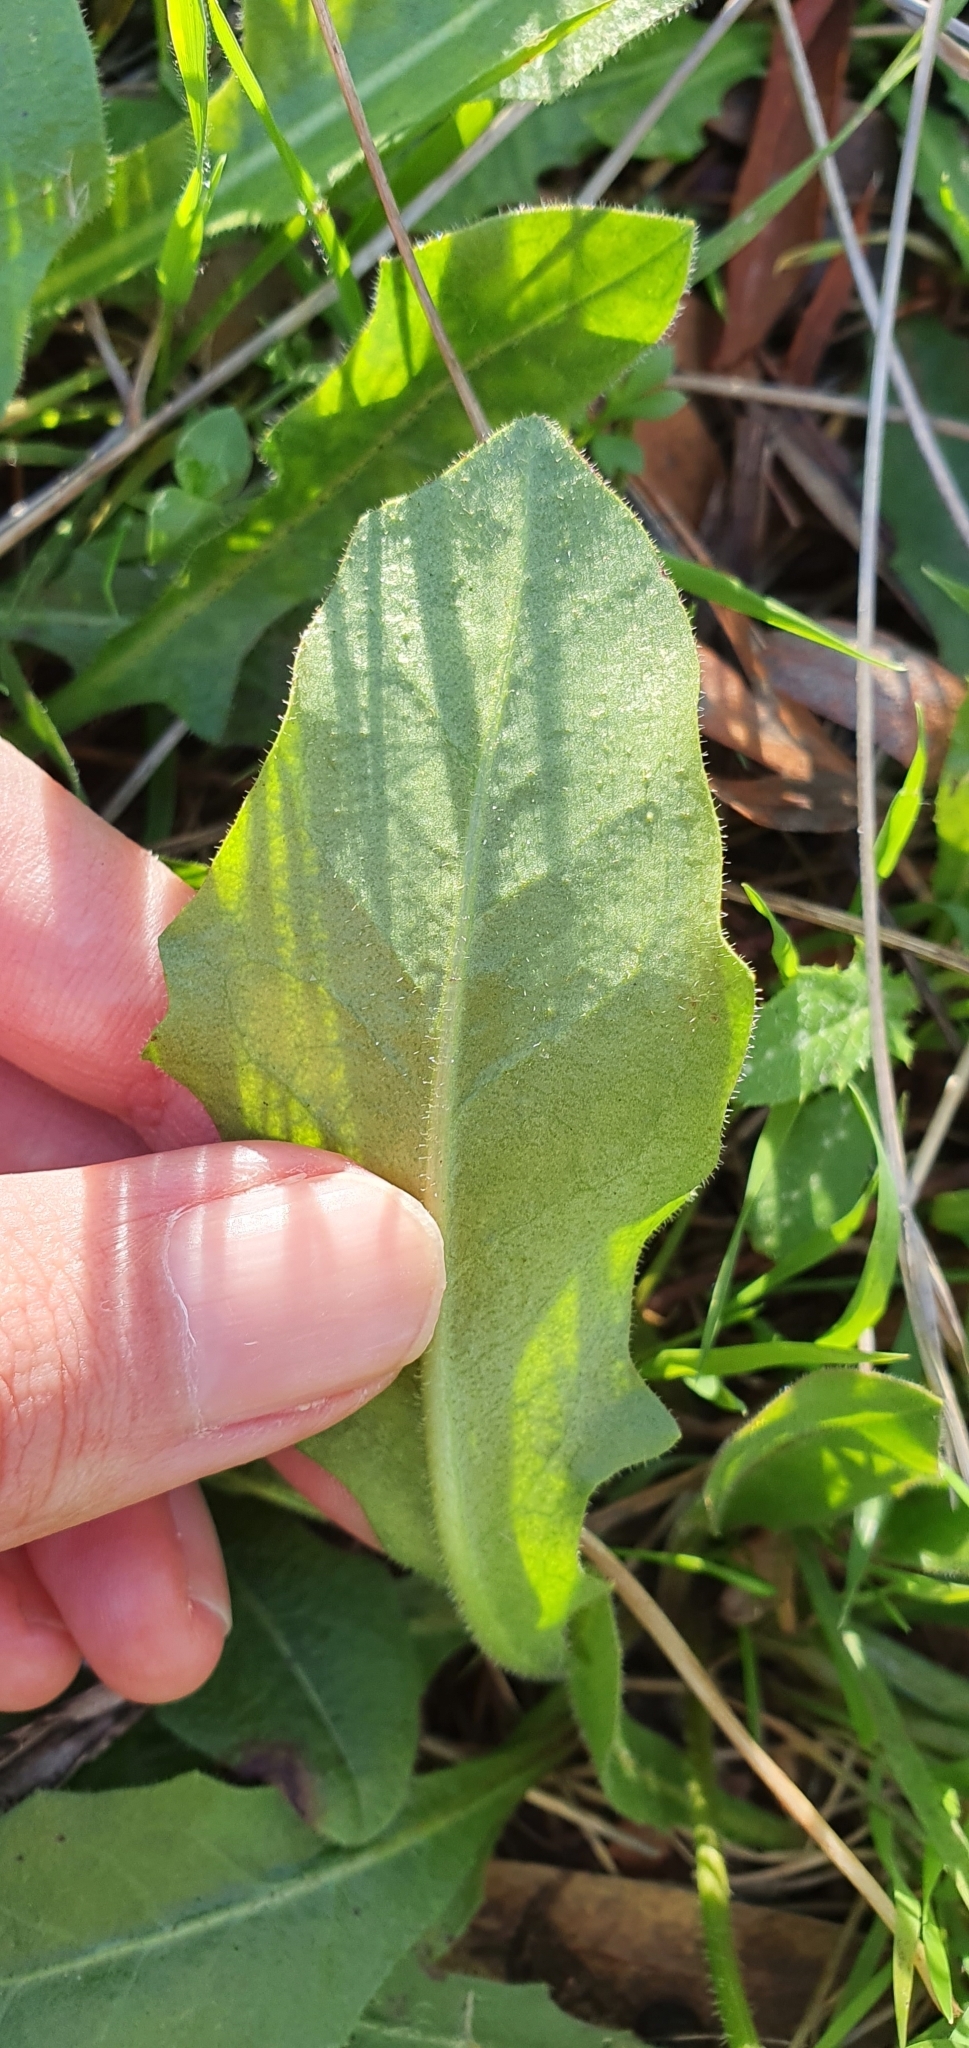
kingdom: Plantae
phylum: Tracheophyta
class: Magnoliopsida
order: Asterales
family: Asteraceae
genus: Leontodon
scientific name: Leontodon tuberosus
